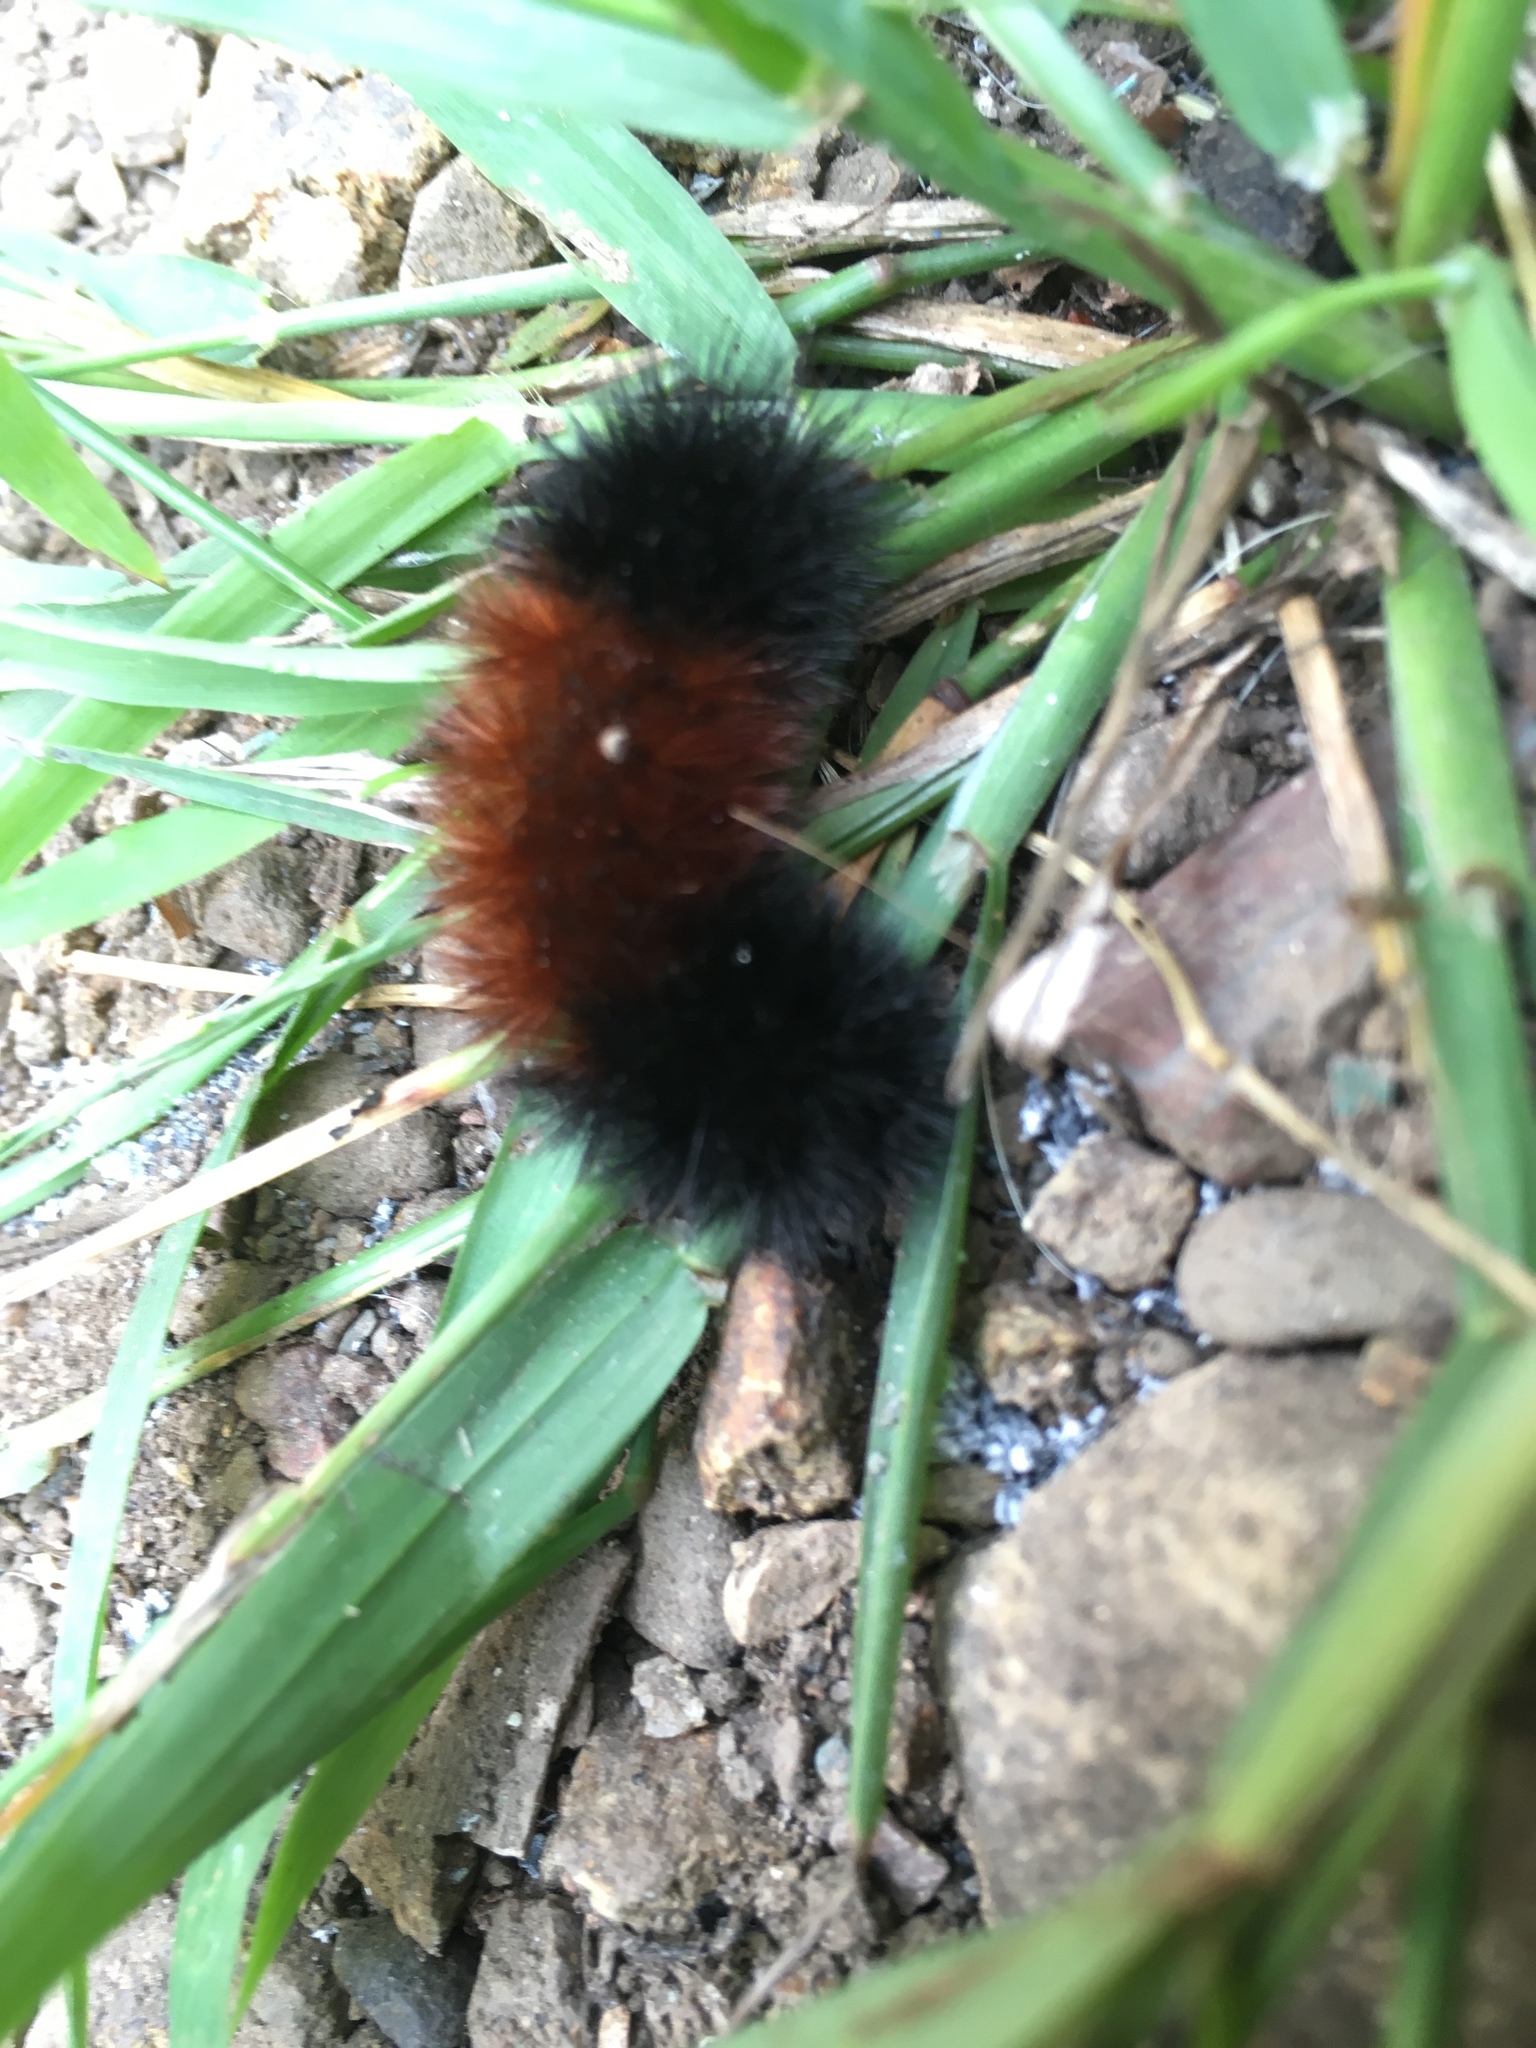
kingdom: Animalia
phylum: Arthropoda
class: Insecta
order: Lepidoptera
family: Erebidae
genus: Pyrrharctia
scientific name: Pyrrharctia isabella
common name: Isabella tiger moth
